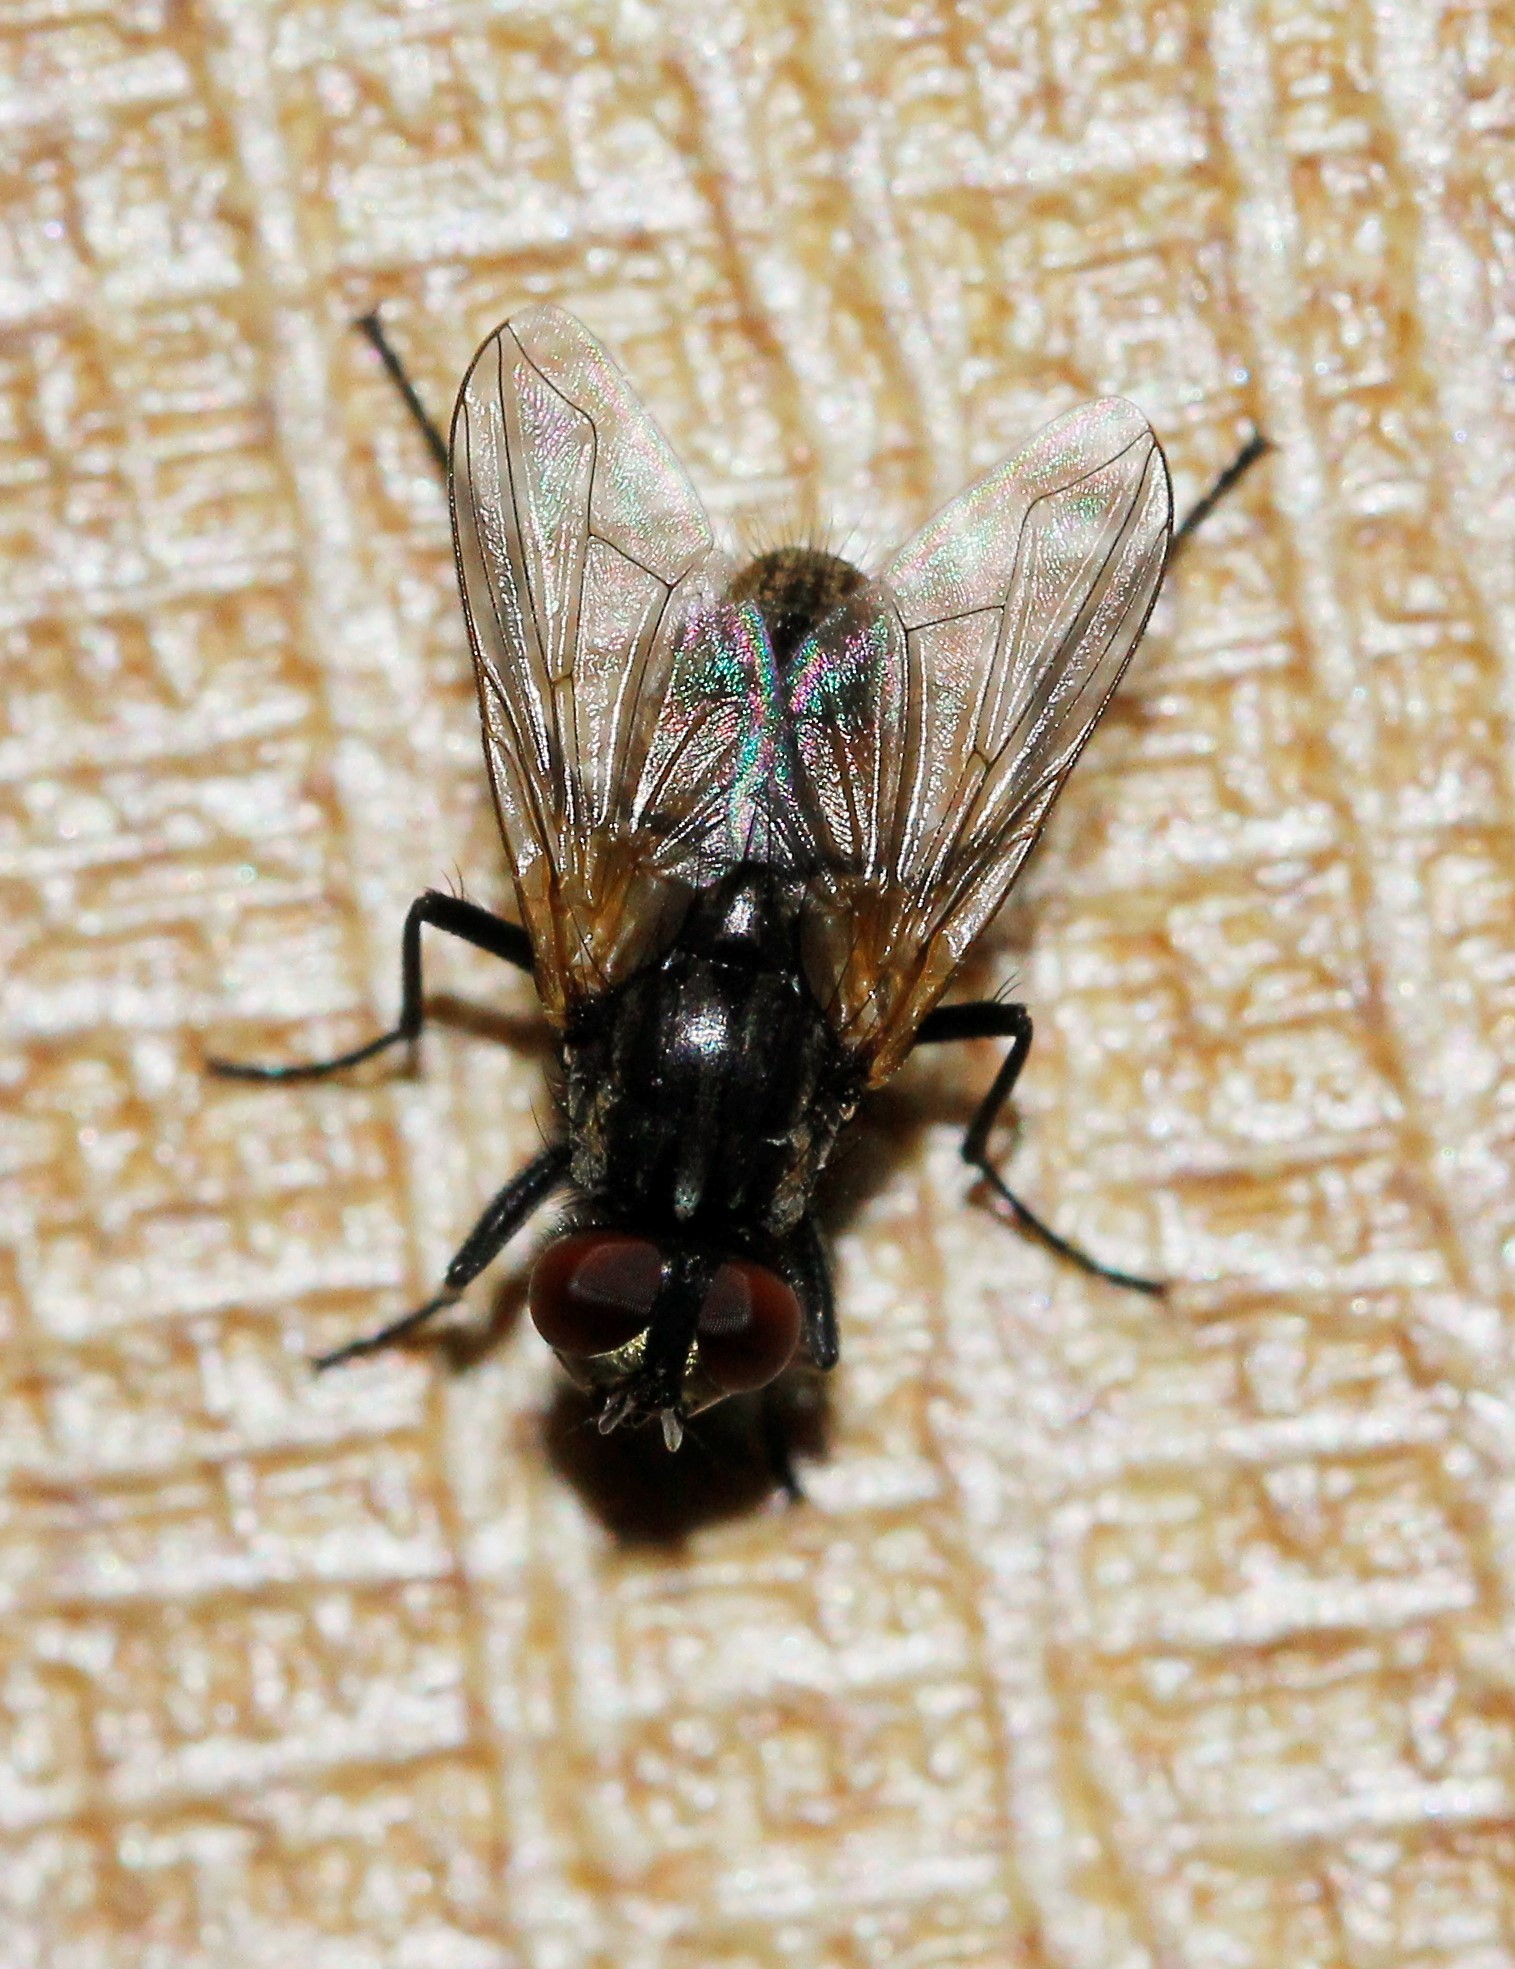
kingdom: Animalia
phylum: Arthropoda
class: Insecta
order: Diptera
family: Muscidae
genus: Musca
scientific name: Musca domestica
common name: House fly
